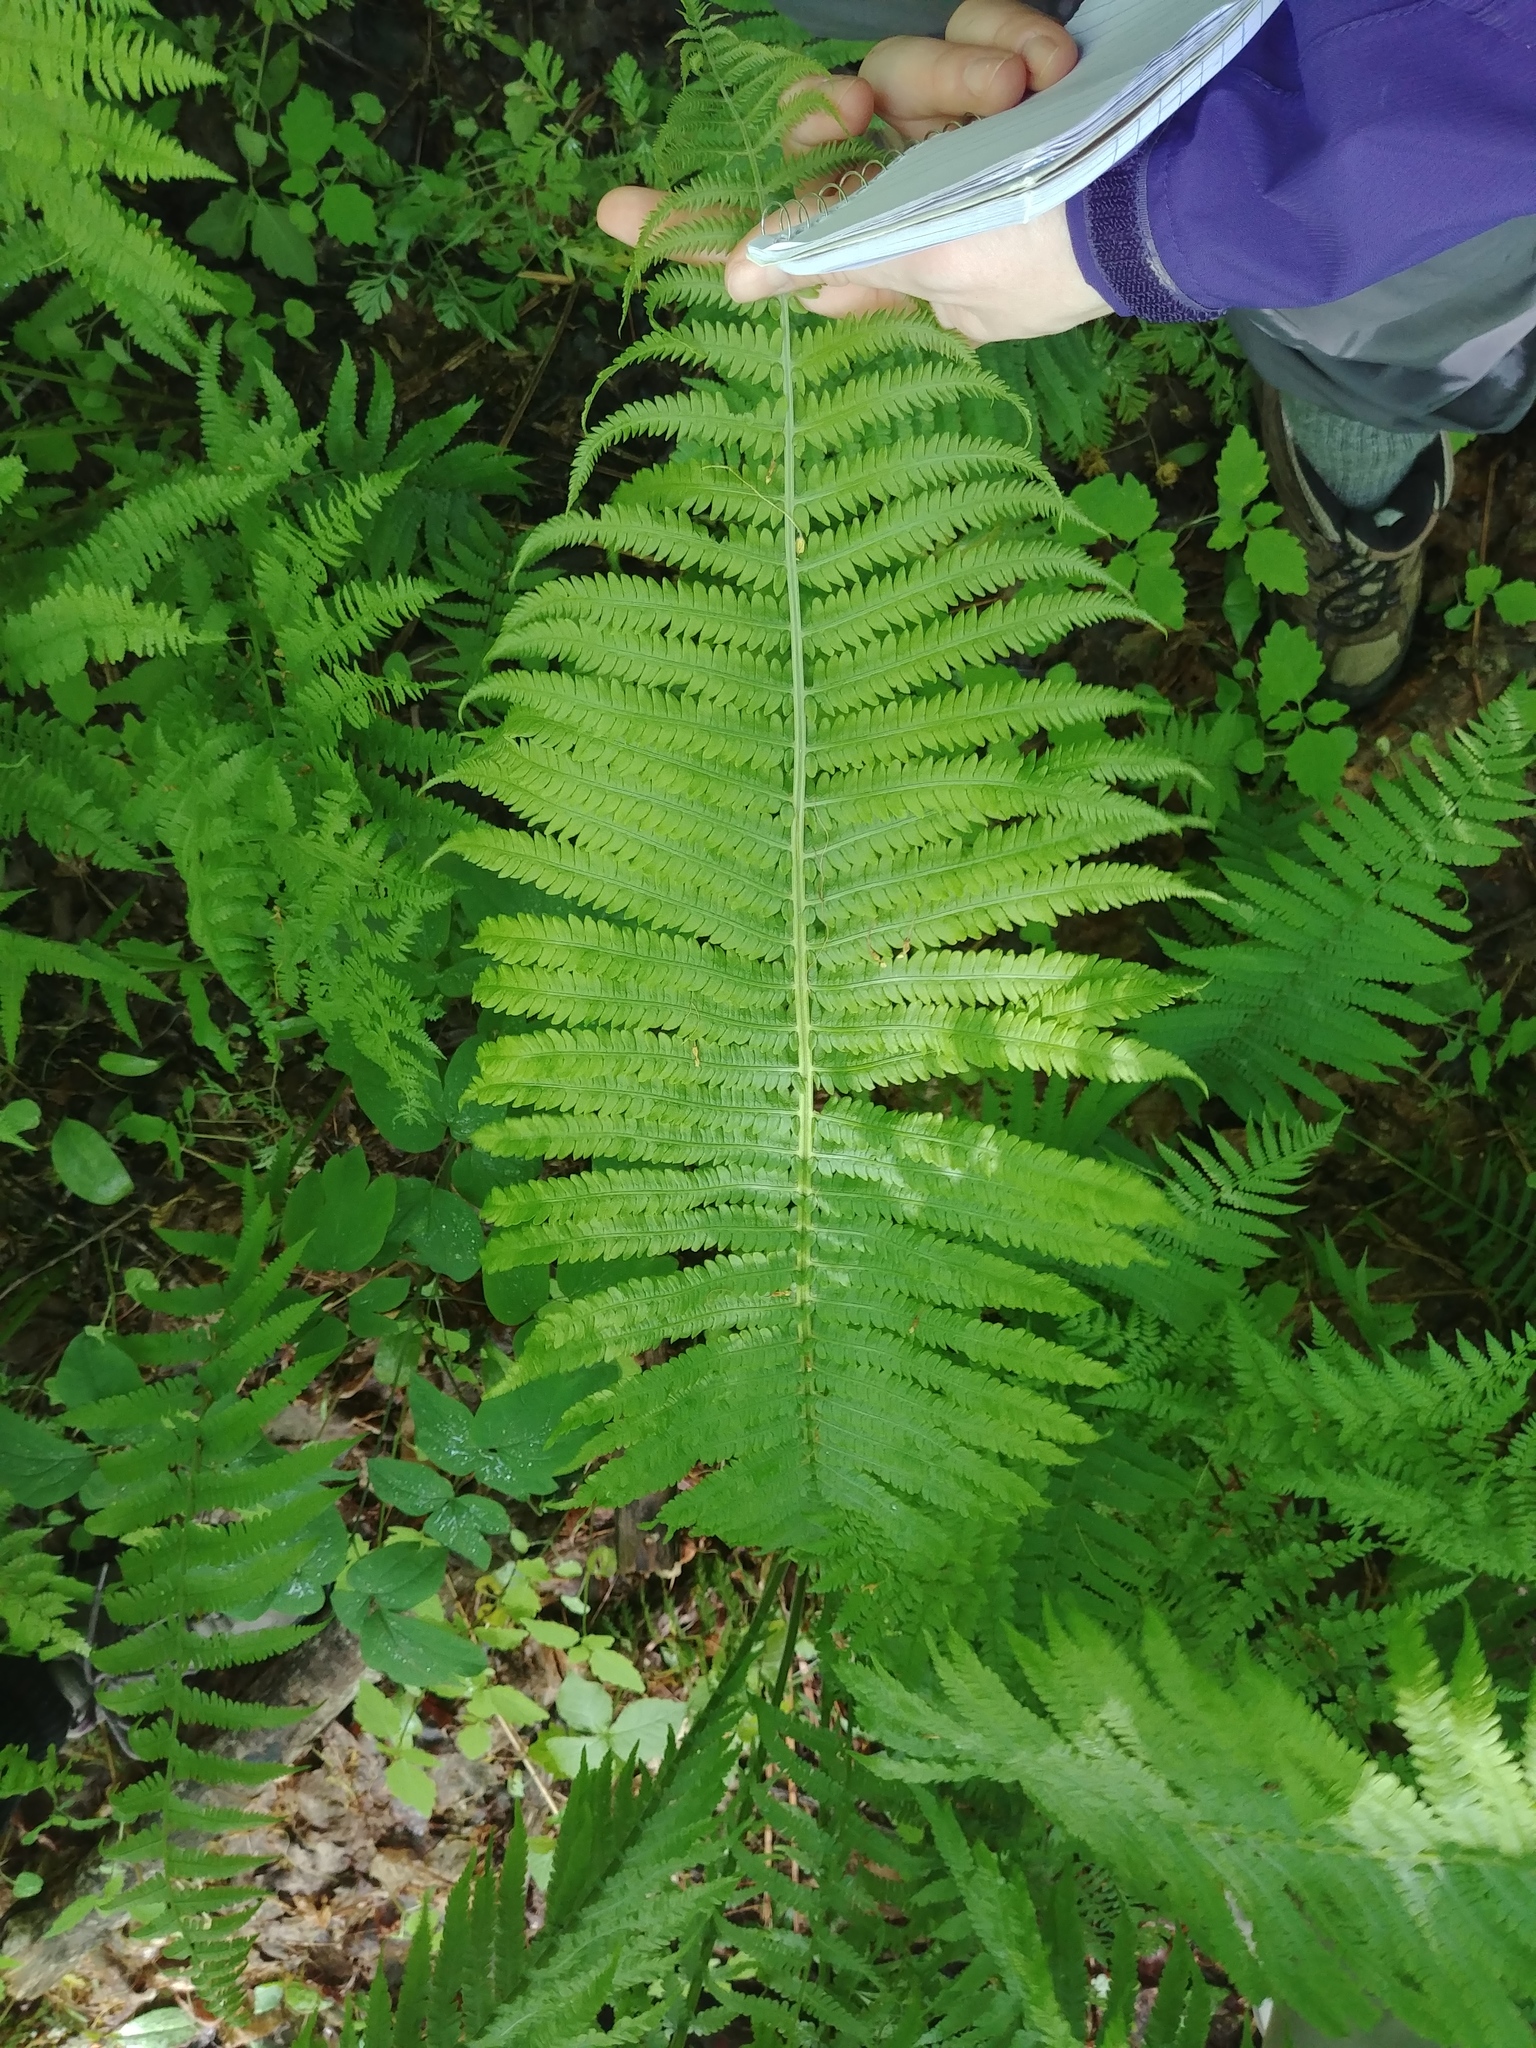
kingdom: Plantae
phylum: Tracheophyta
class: Polypodiopsida
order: Polypodiales
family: Onocleaceae
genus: Matteuccia
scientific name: Matteuccia struthiopteris
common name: Ostrich fern
